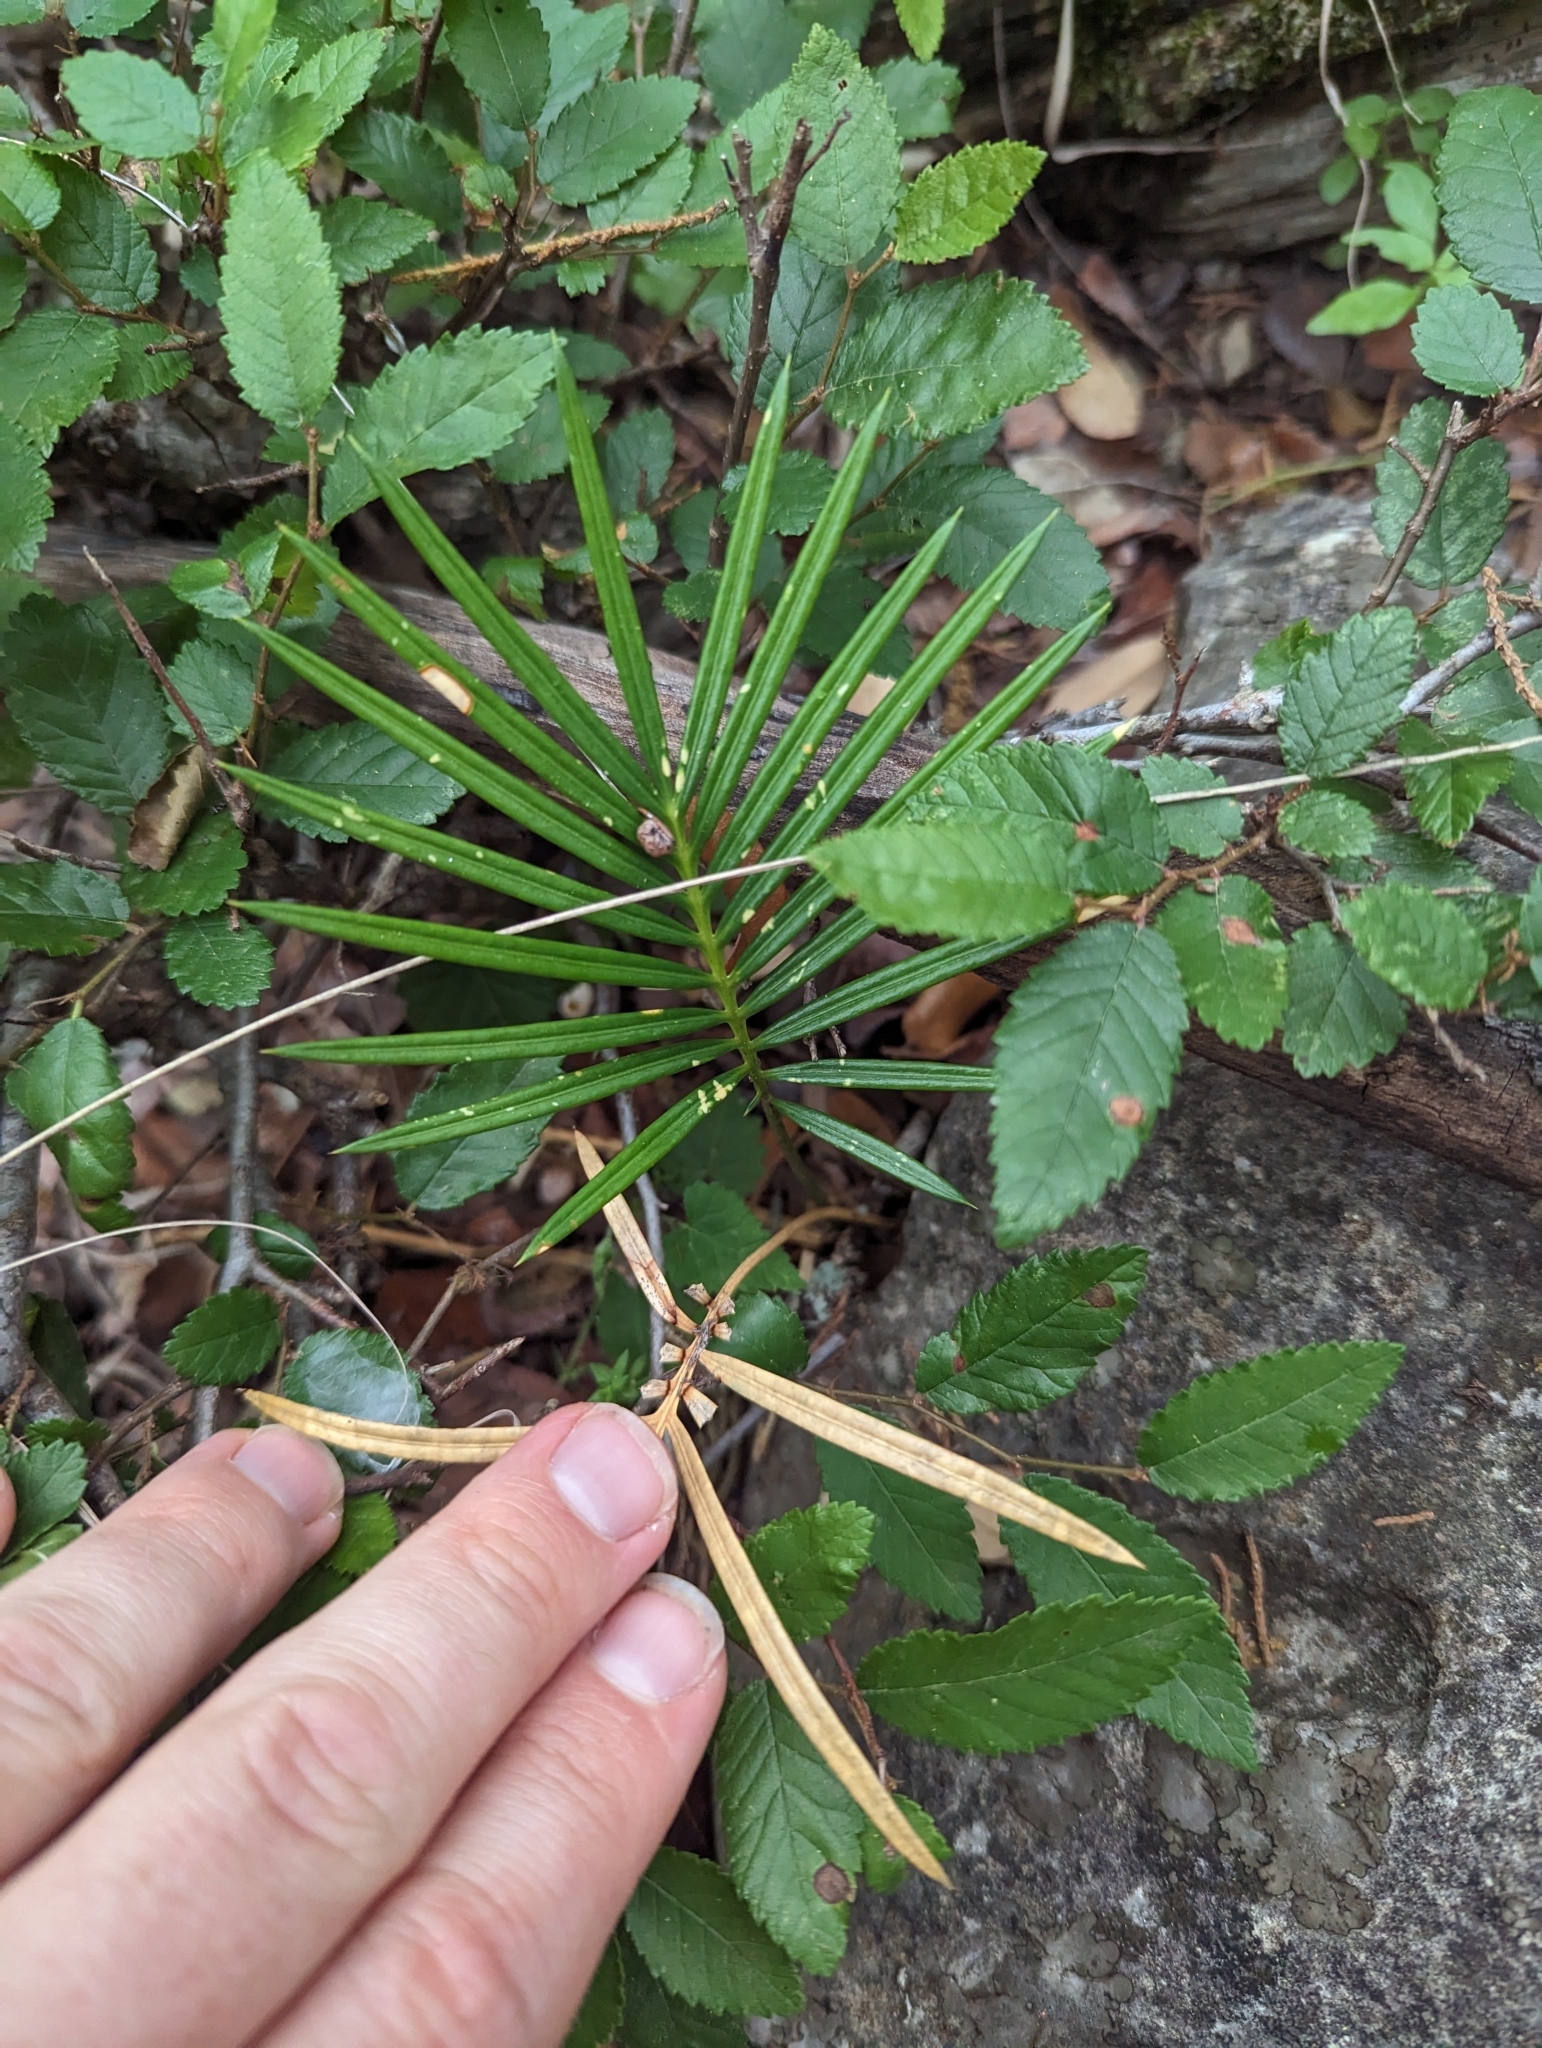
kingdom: Plantae
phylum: Tracheophyta
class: Cycadopsida
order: Cycadales
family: Cycadaceae
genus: Cycas
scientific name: Cycas revoluta
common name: Sago palm
